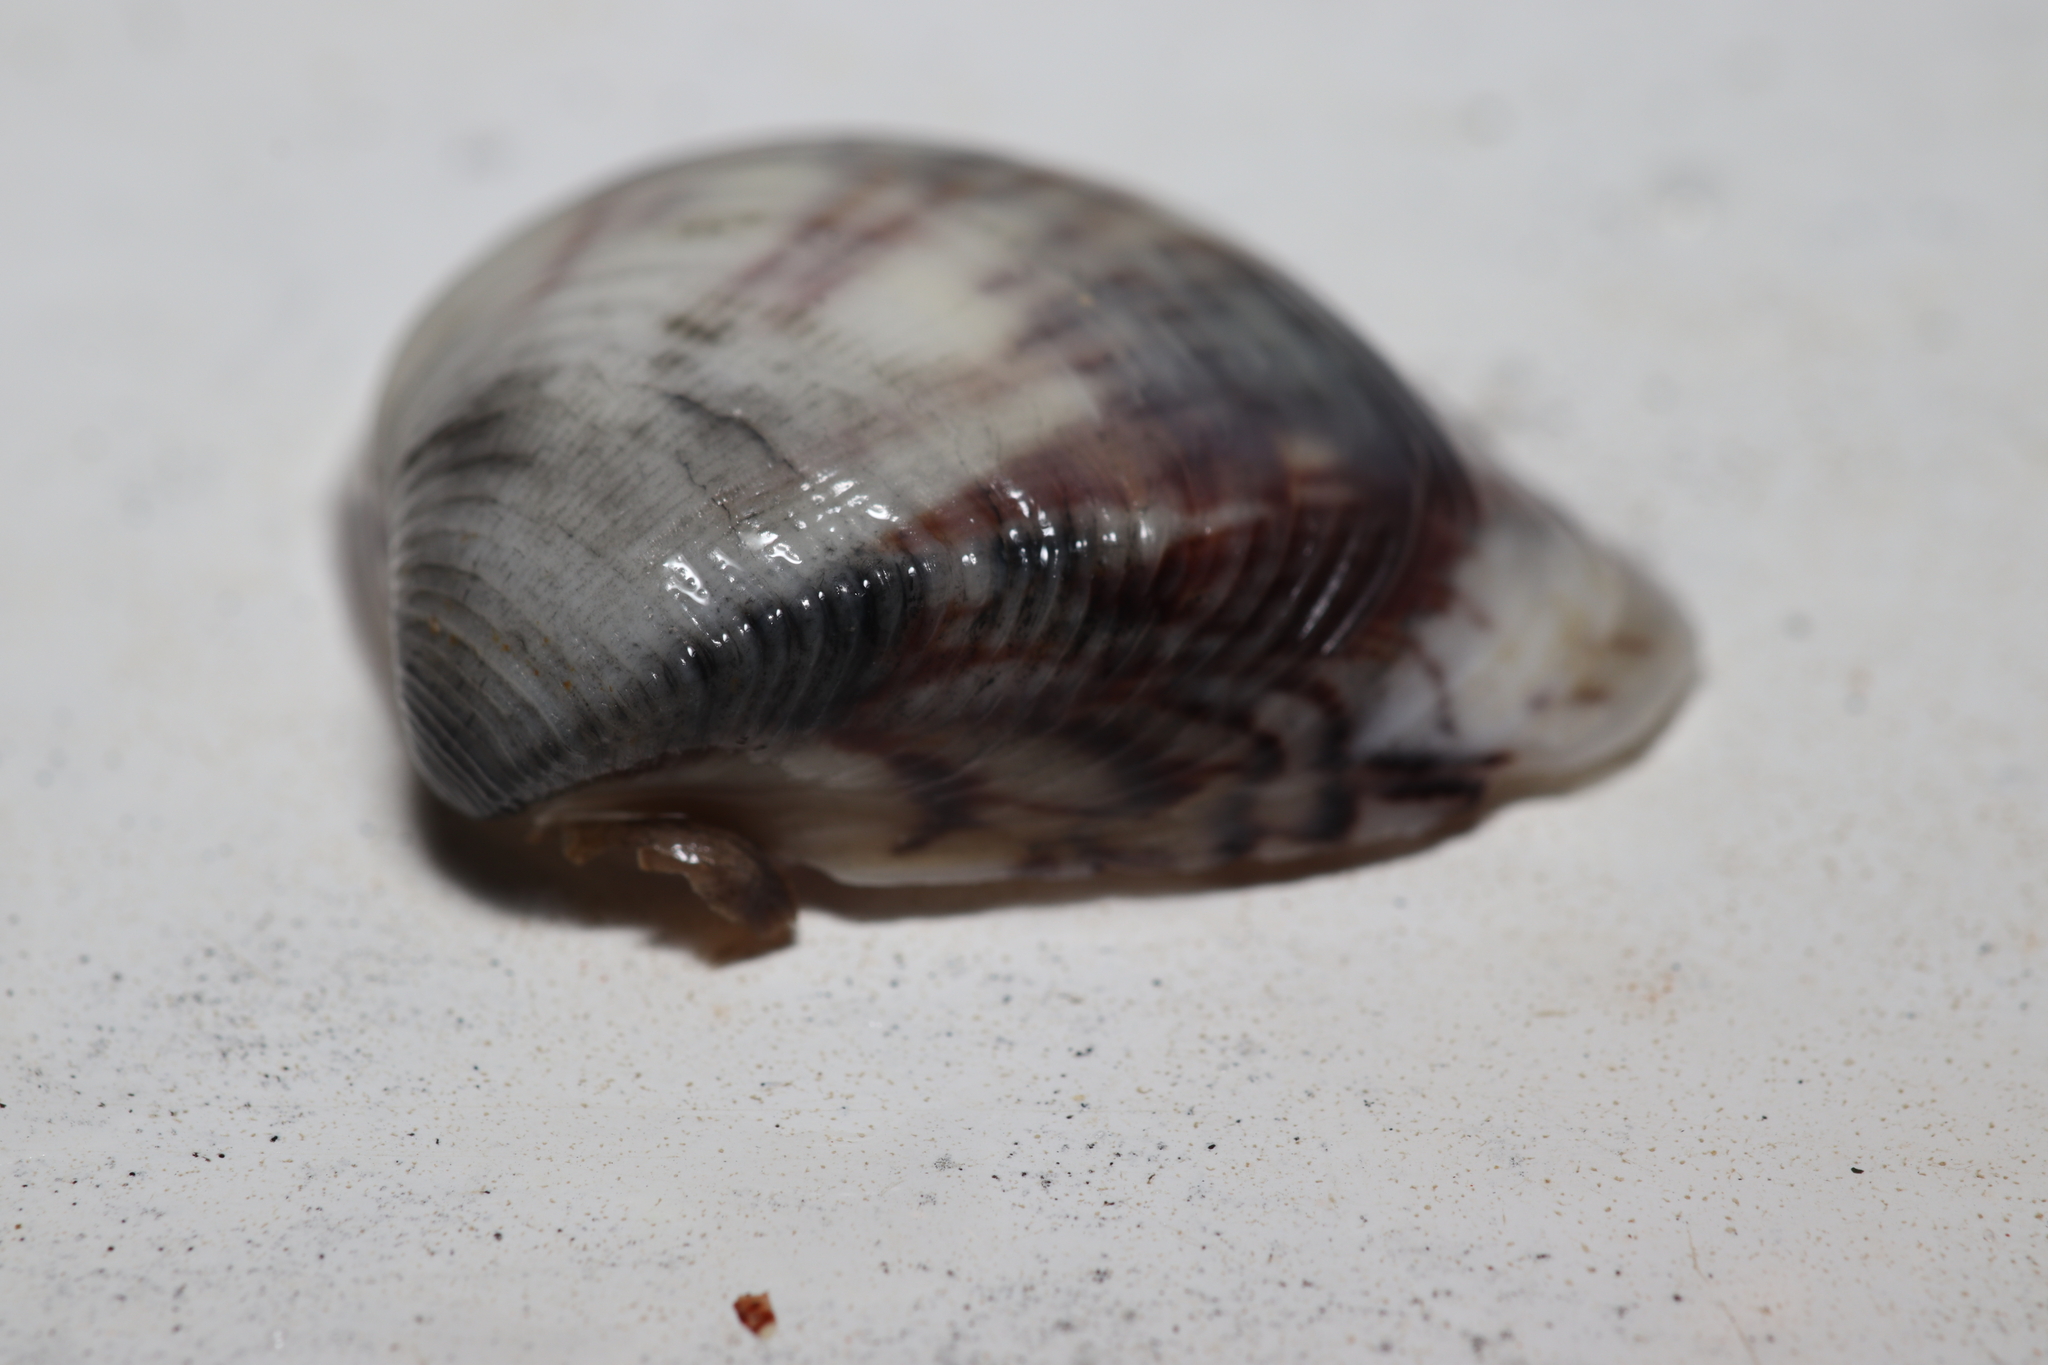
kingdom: Animalia
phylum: Mollusca
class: Bivalvia
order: Venerida
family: Veneridae
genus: Anomalocardia
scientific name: Anomalocardia flexuosa
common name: Carib pointed venus
